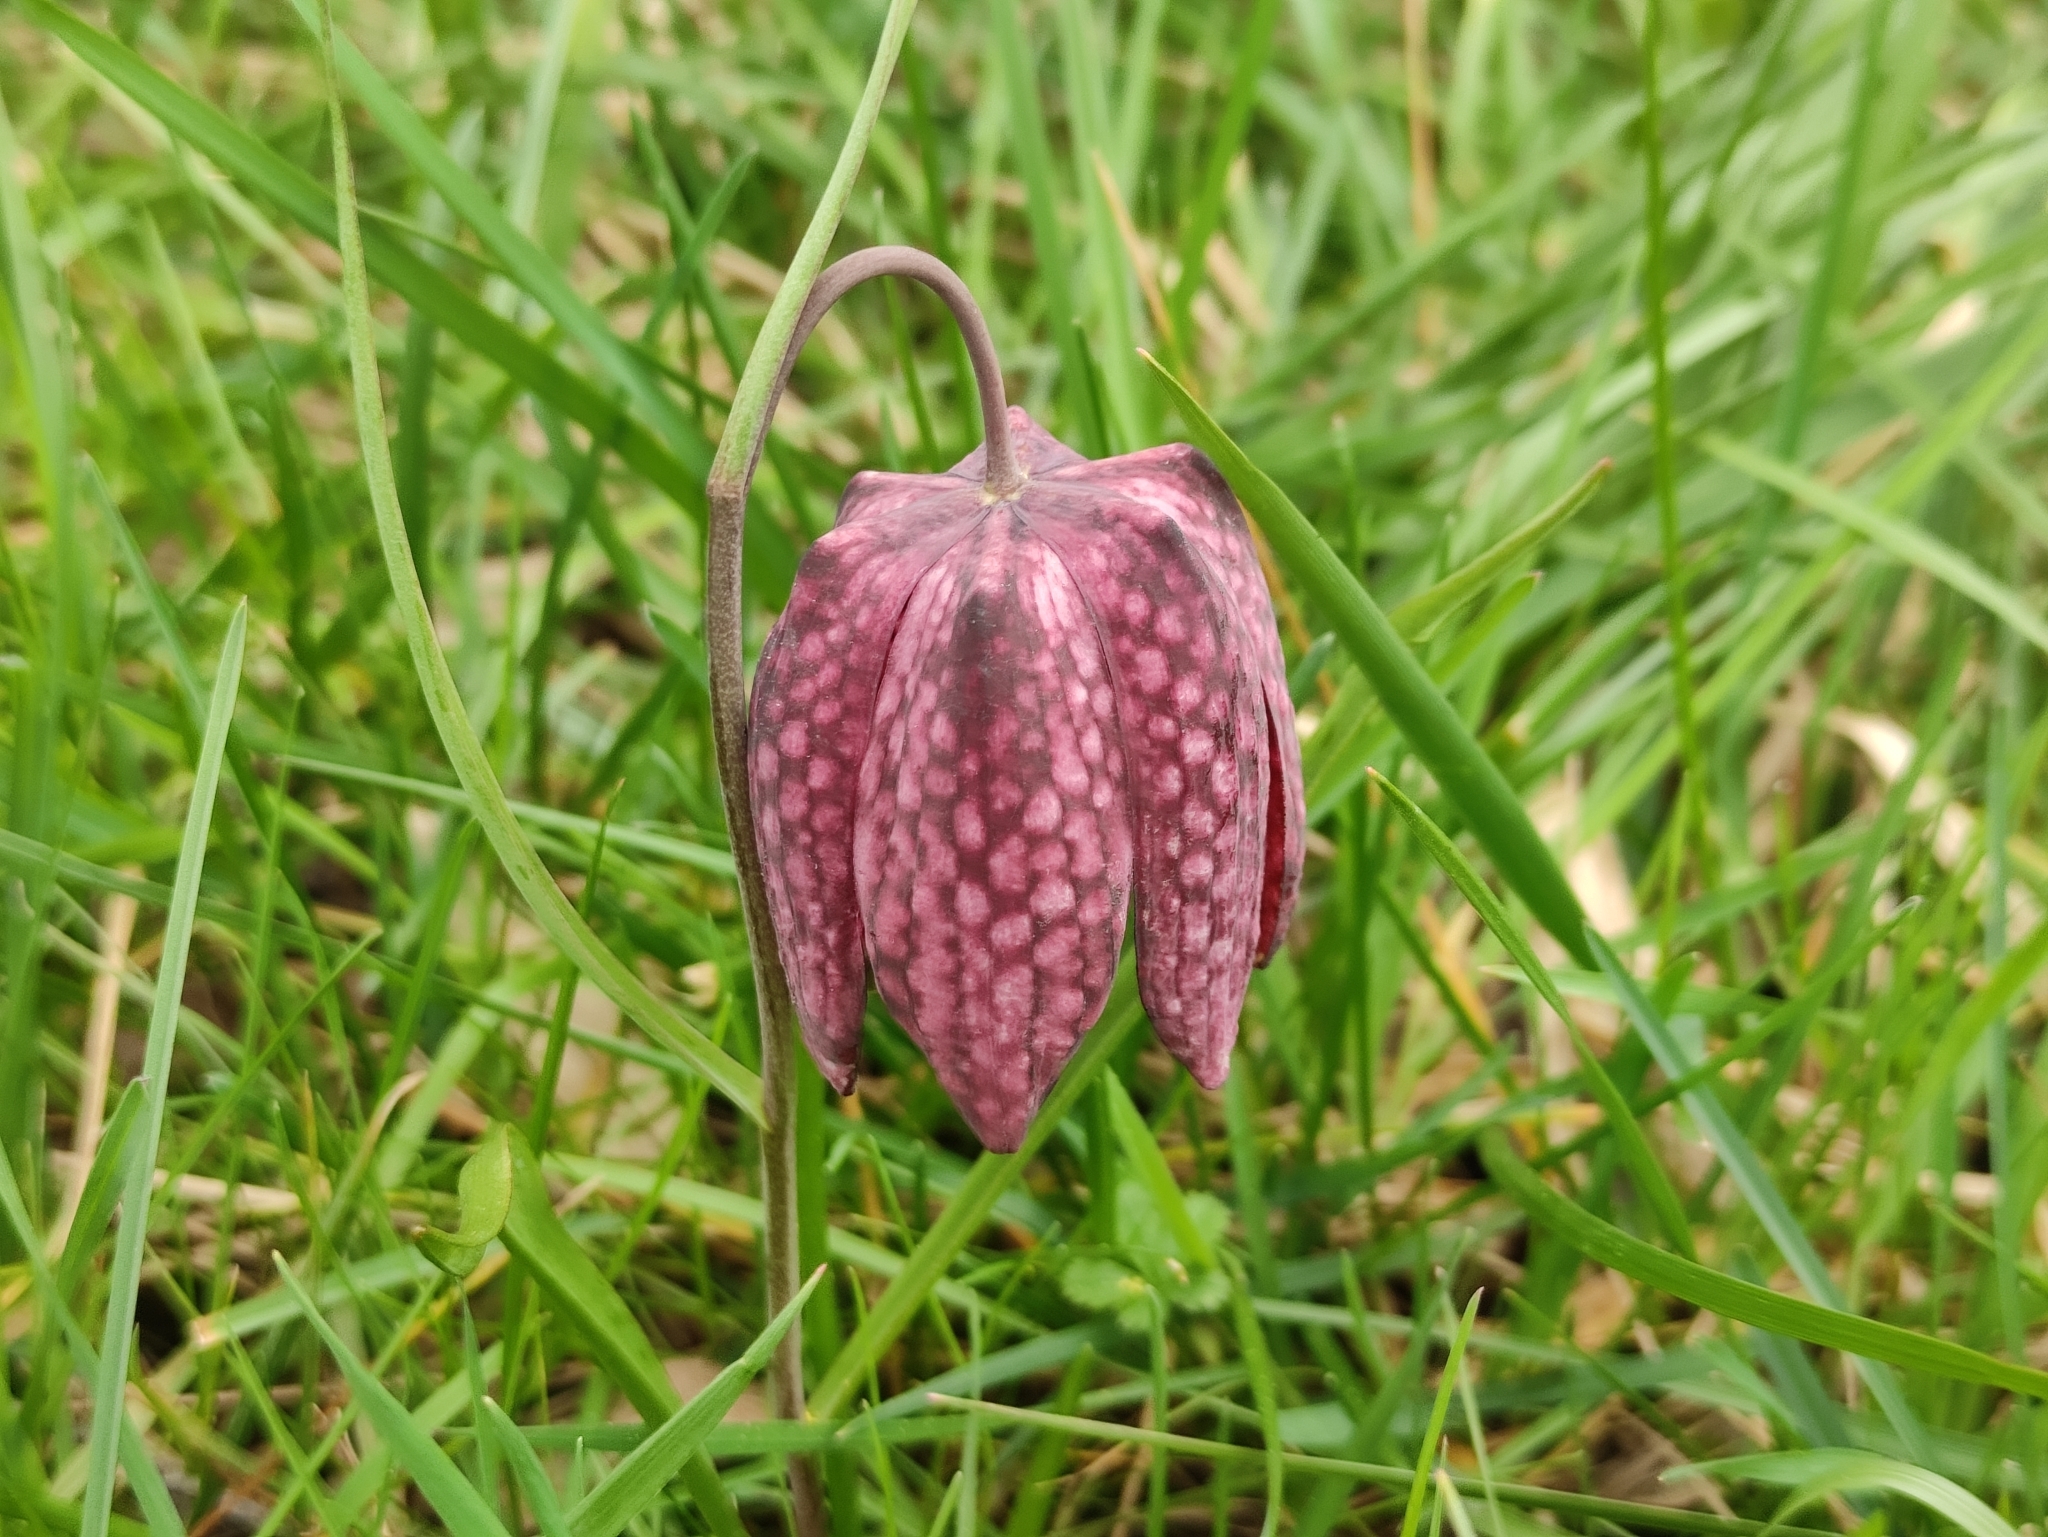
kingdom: Plantae
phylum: Tracheophyta
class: Liliopsida
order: Liliales
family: Liliaceae
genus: Fritillaria
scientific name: Fritillaria meleagris
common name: Fritillary
